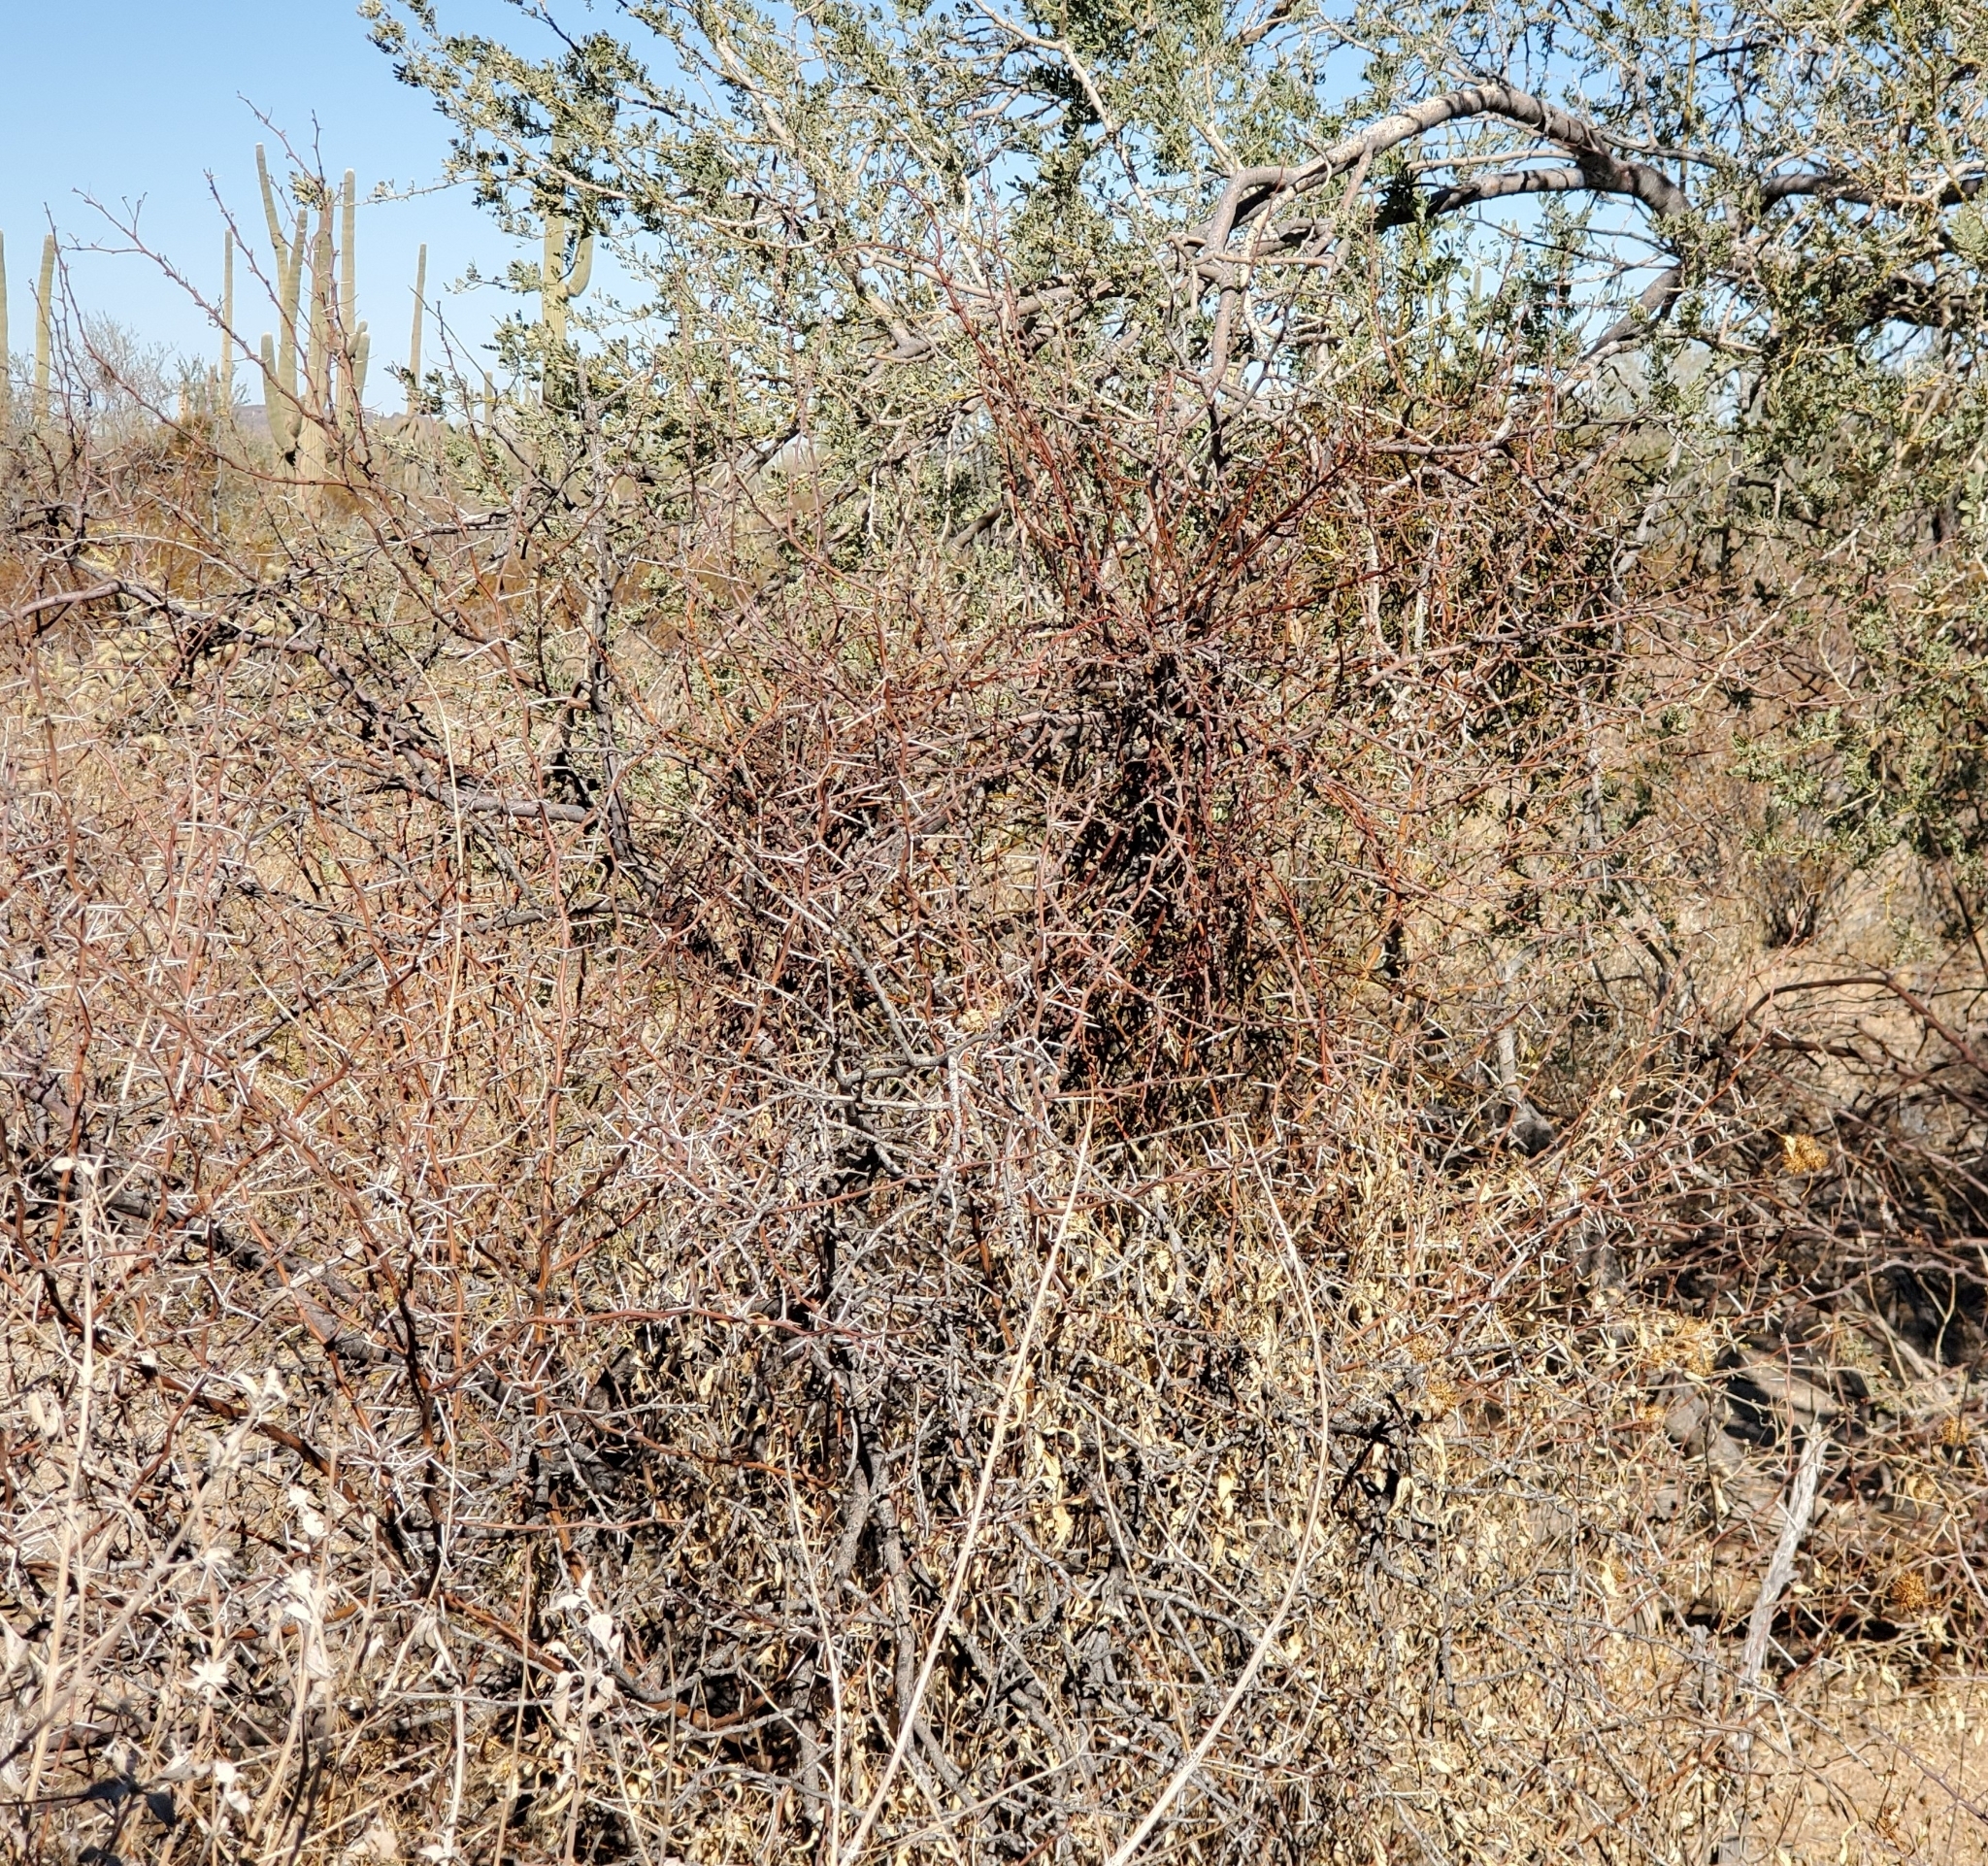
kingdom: Plantae
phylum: Tracheophyta
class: Magnoliopsida
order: Santalales
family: Viscaceae
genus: Phoradendron
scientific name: Phoradendron californicum
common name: Acacia mistletoe
